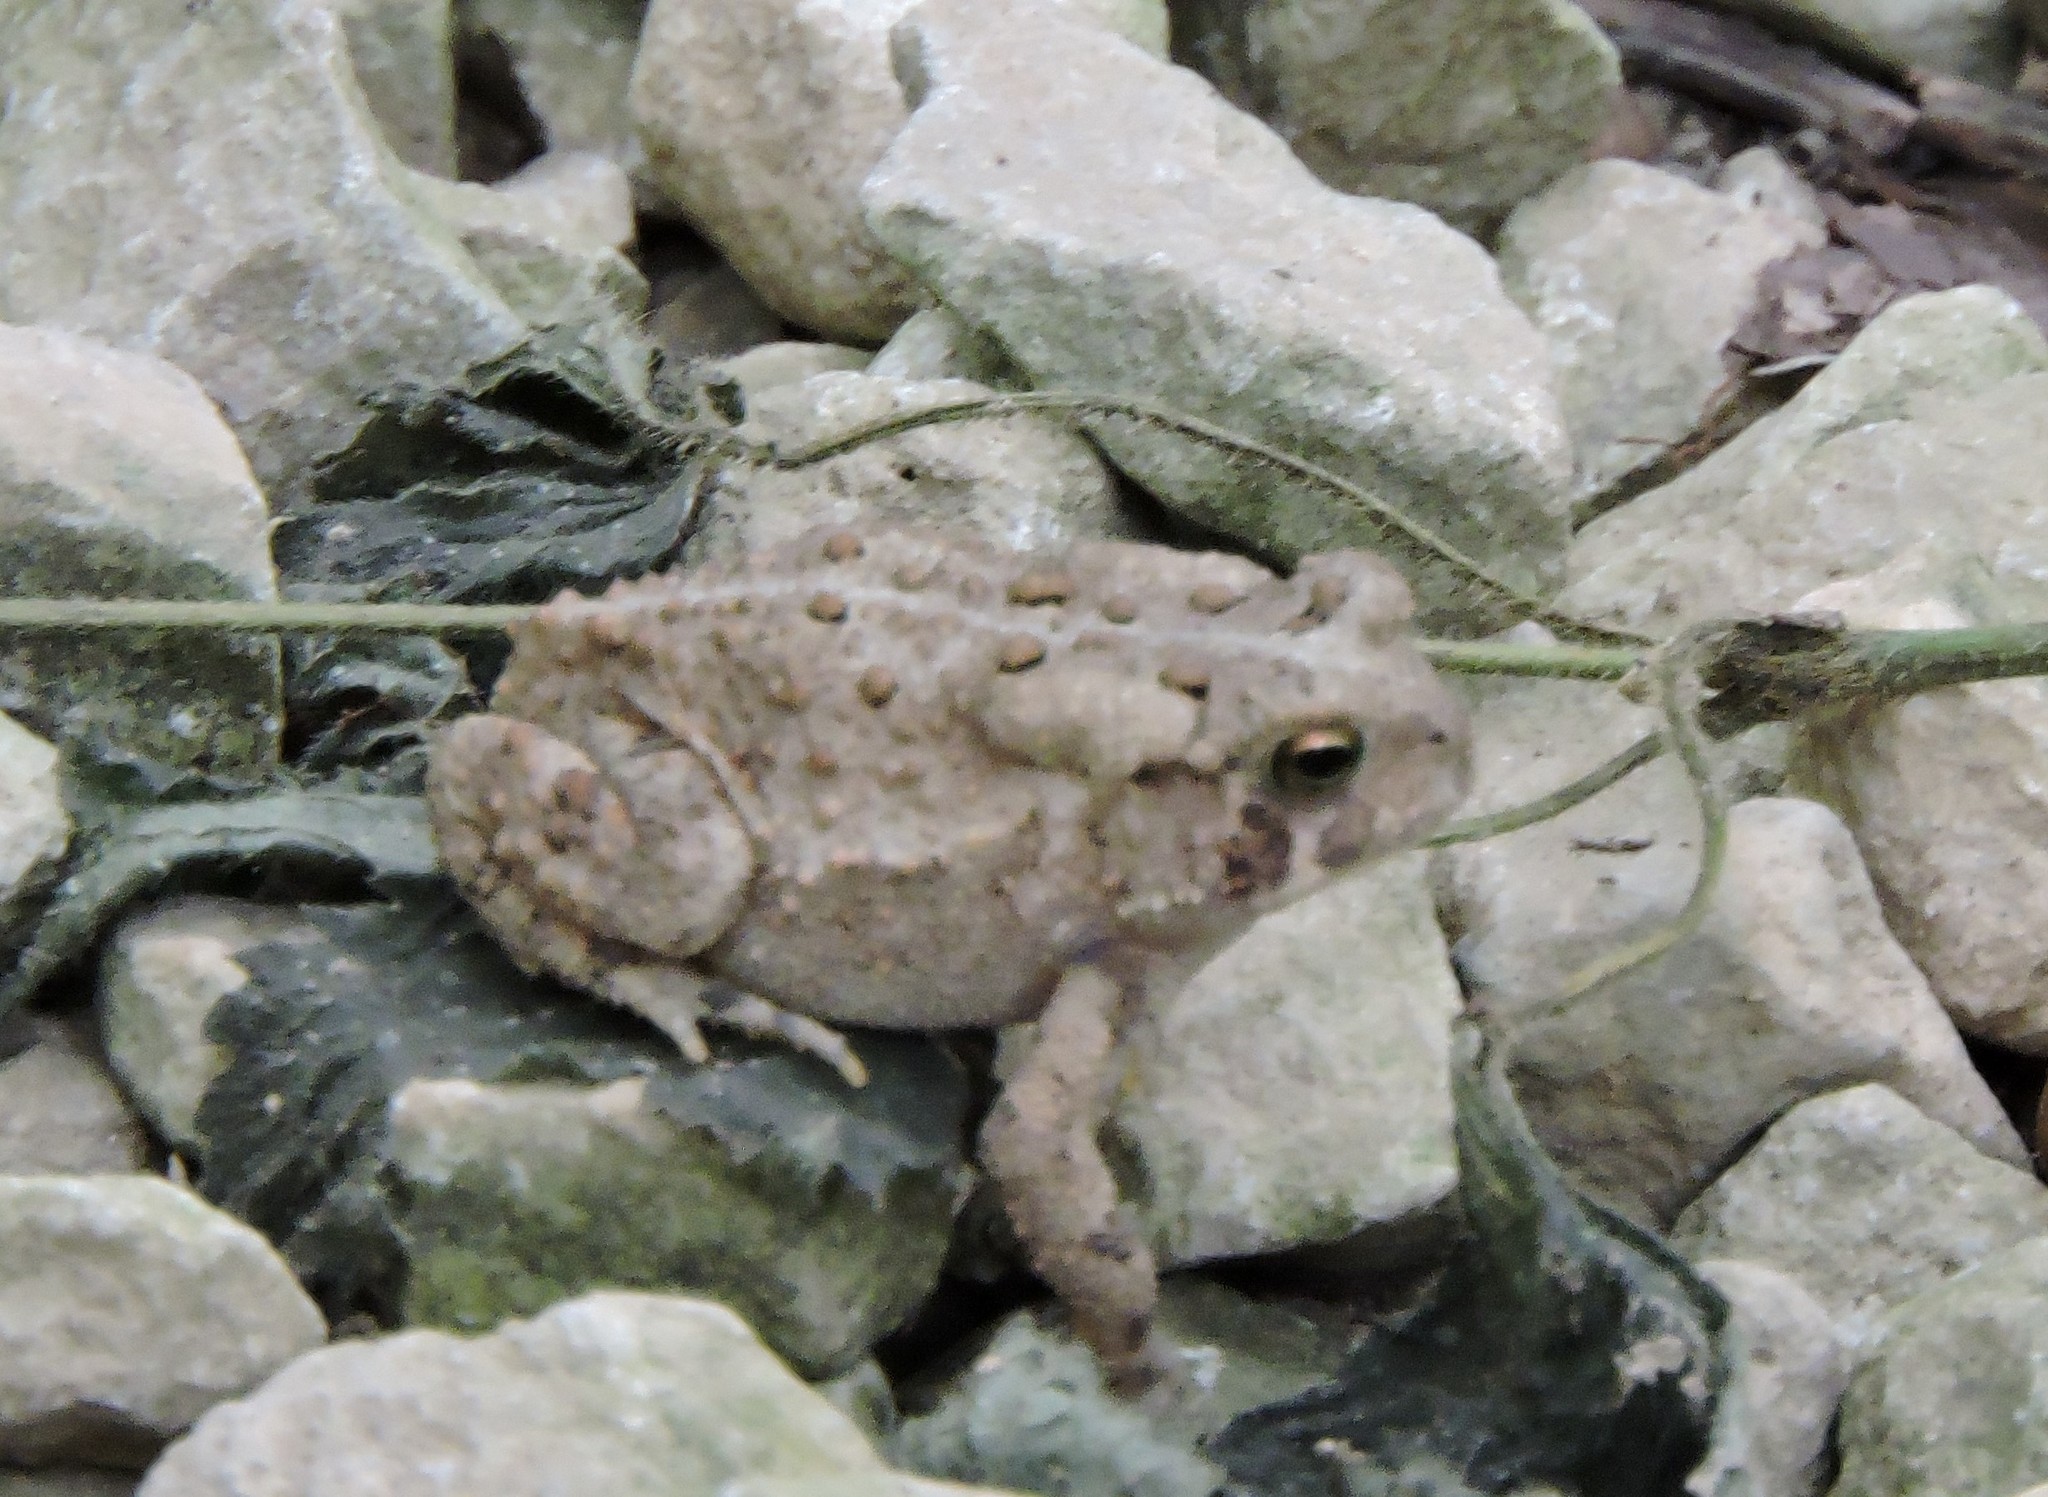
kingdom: Animalia
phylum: Chordata
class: Amphibia
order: Anura
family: Bufonidae
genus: Anaxyrus
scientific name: Anaxyrus americanus
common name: American toad
